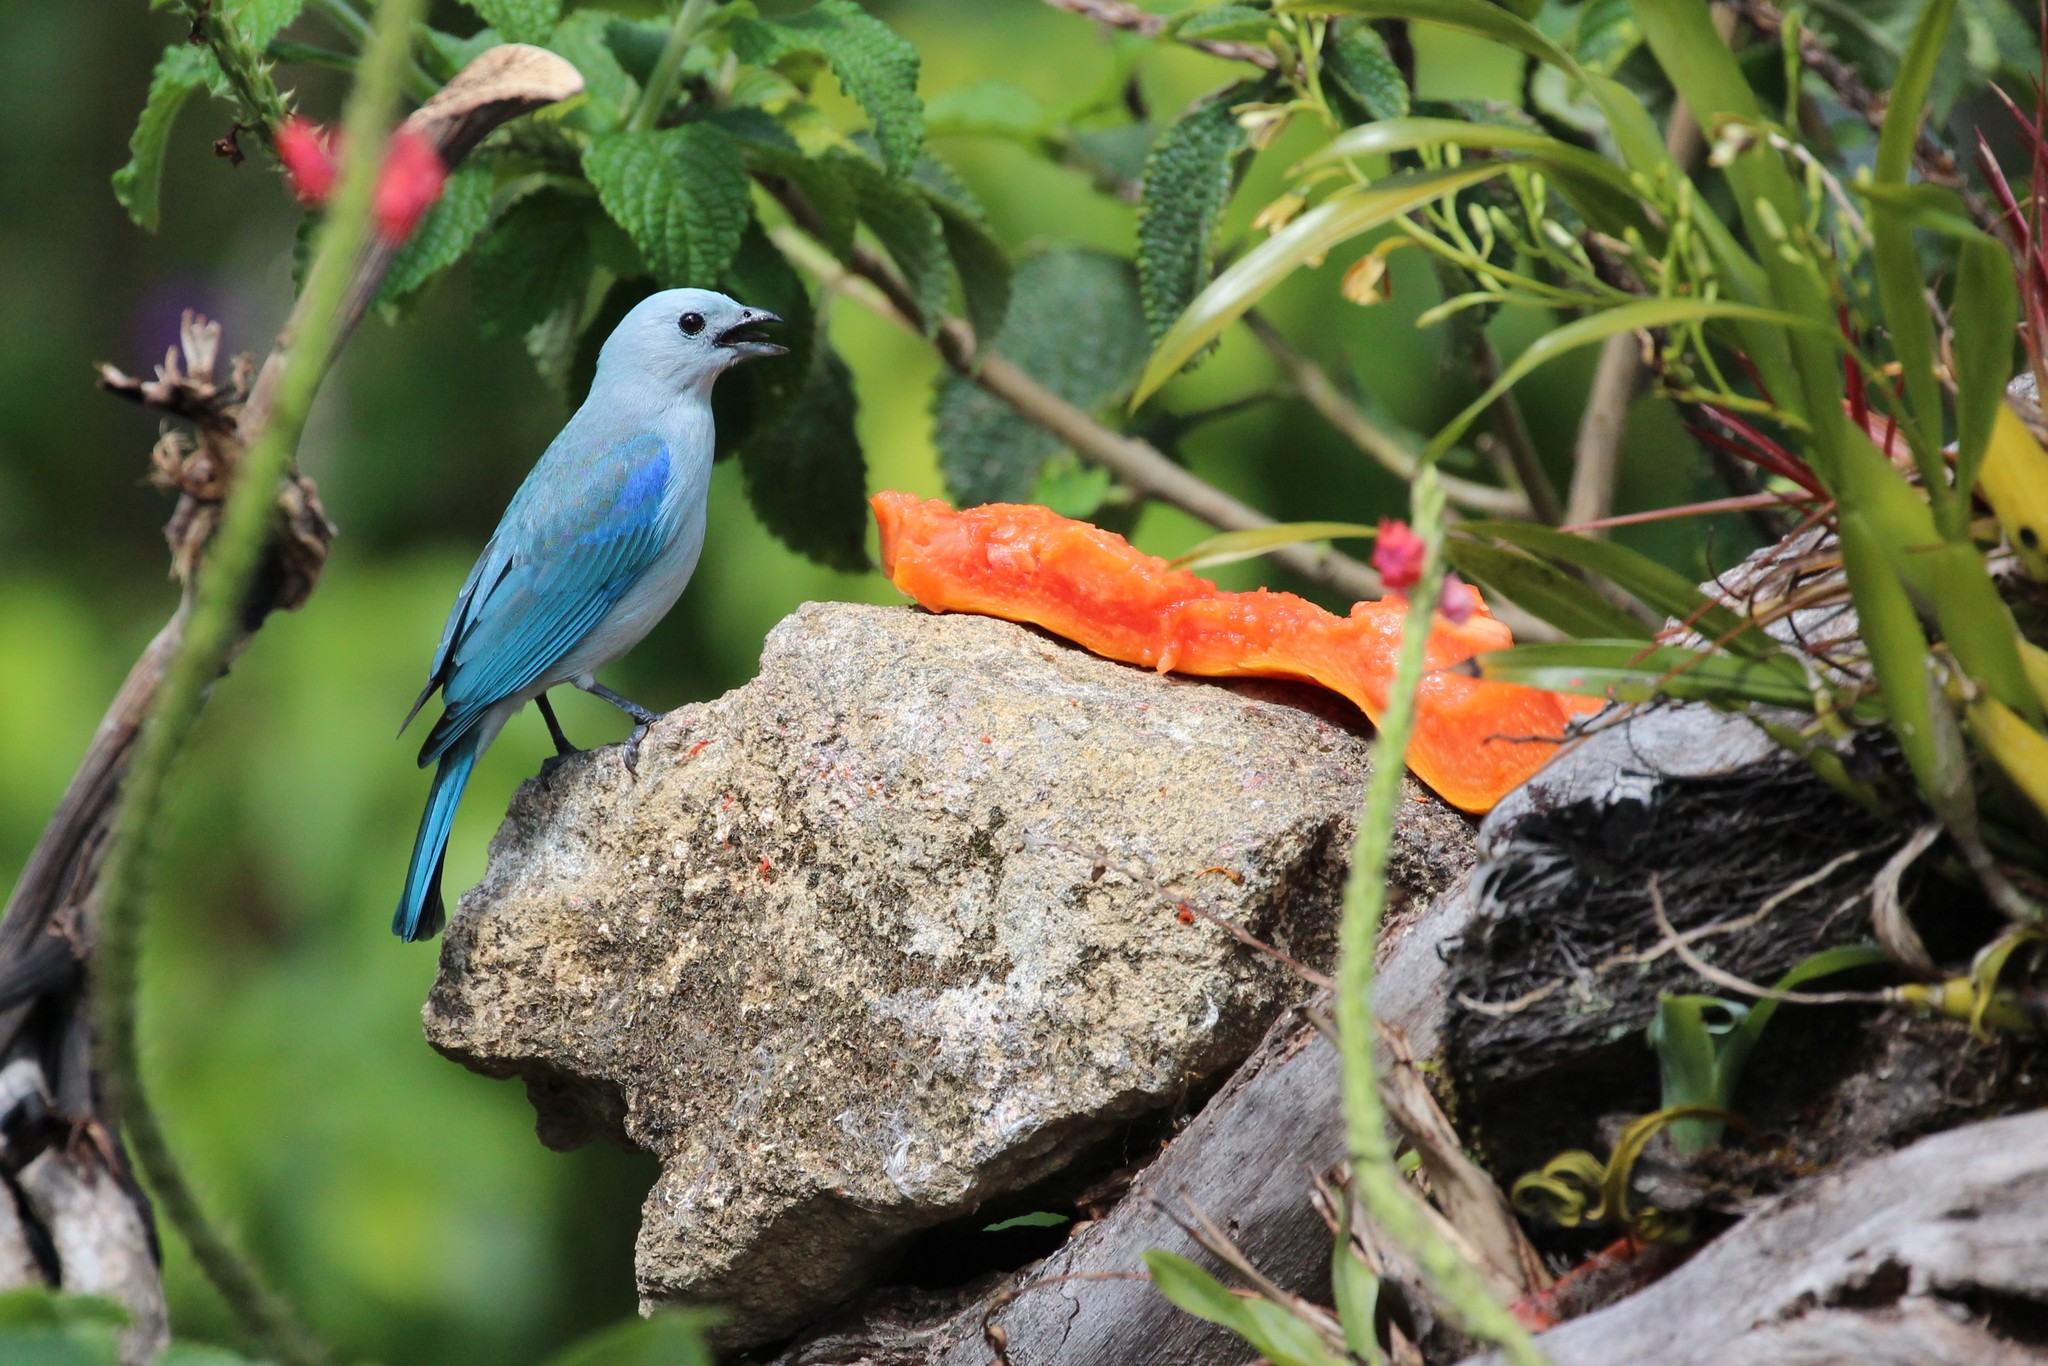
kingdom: Animalia
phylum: Chordata
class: Aves
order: Passeriformes
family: Thraupidae
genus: Thraupis
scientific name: Thraupis episcopus
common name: Blue-grey tanager
